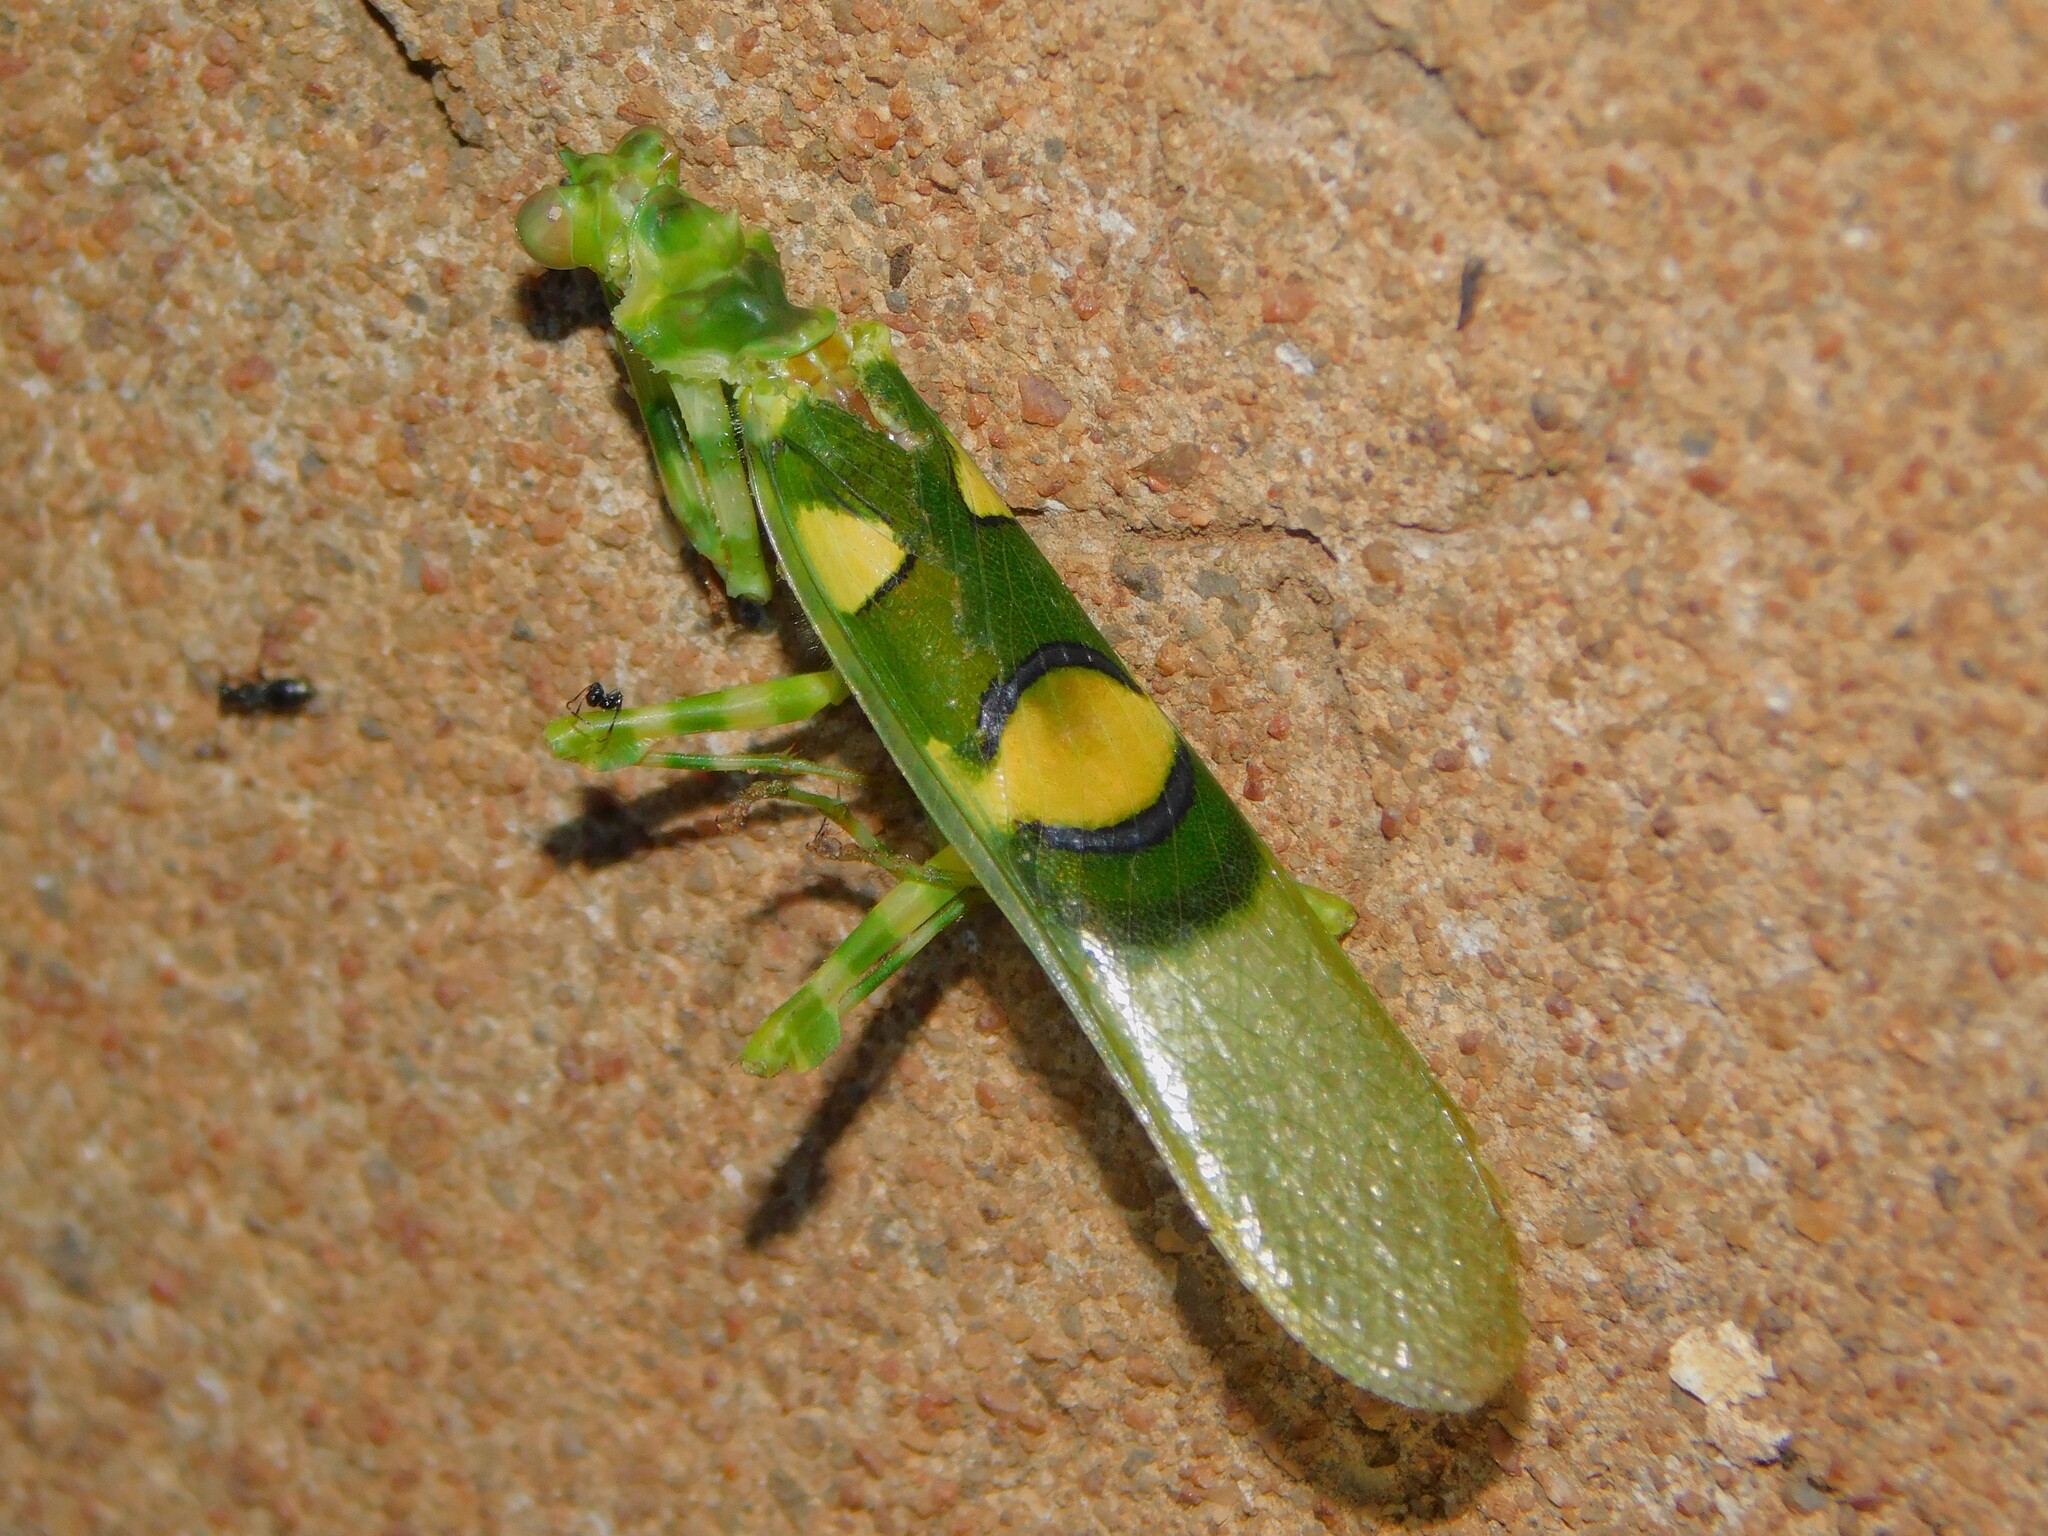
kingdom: Animalia
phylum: Arthropoda
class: Insecta
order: Mantodea
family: Hymenopodidae
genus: Chlidonoptera
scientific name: Chlidonoptera vexillum
